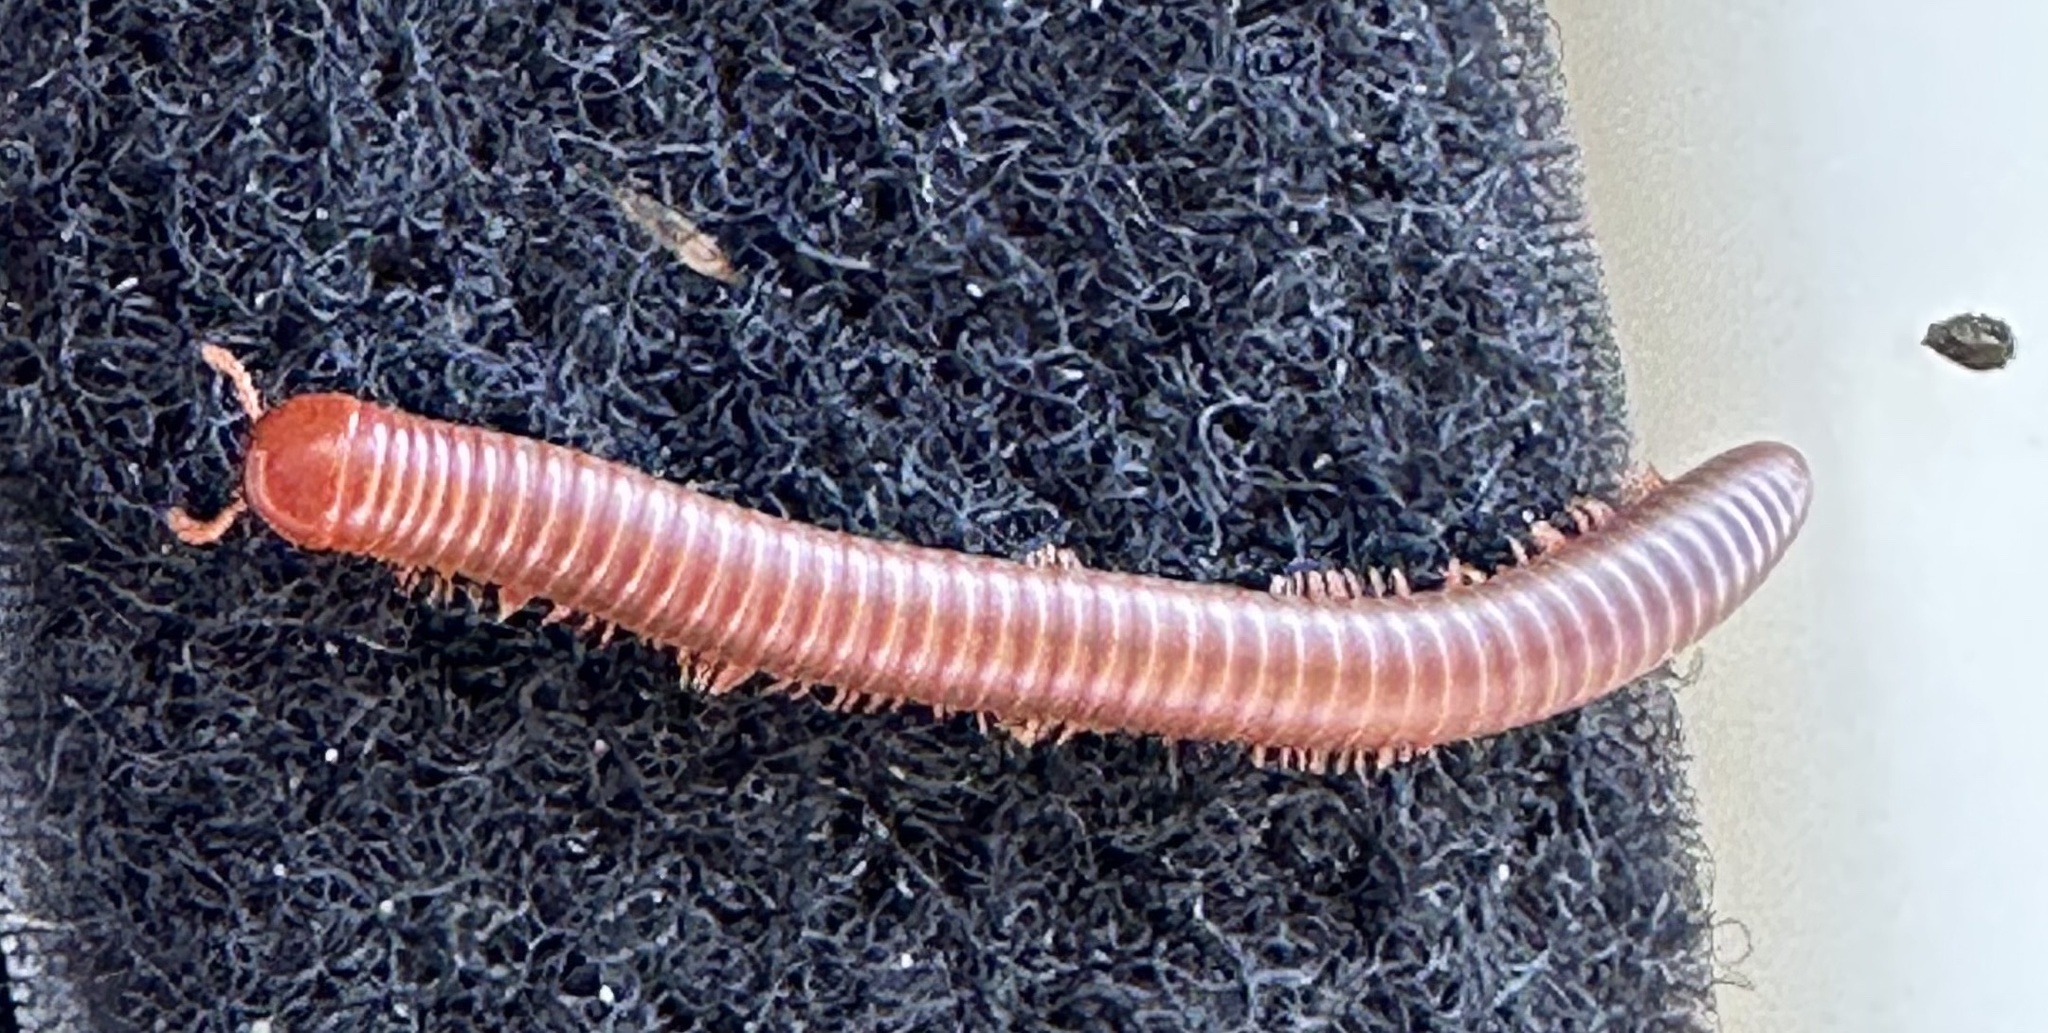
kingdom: Animalia
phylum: Arthropoda
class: Diplopoda
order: Spirobolida
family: Pachybolidae
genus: Trigoniulus
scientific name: Trigoniulus corallinus
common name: Millipede
